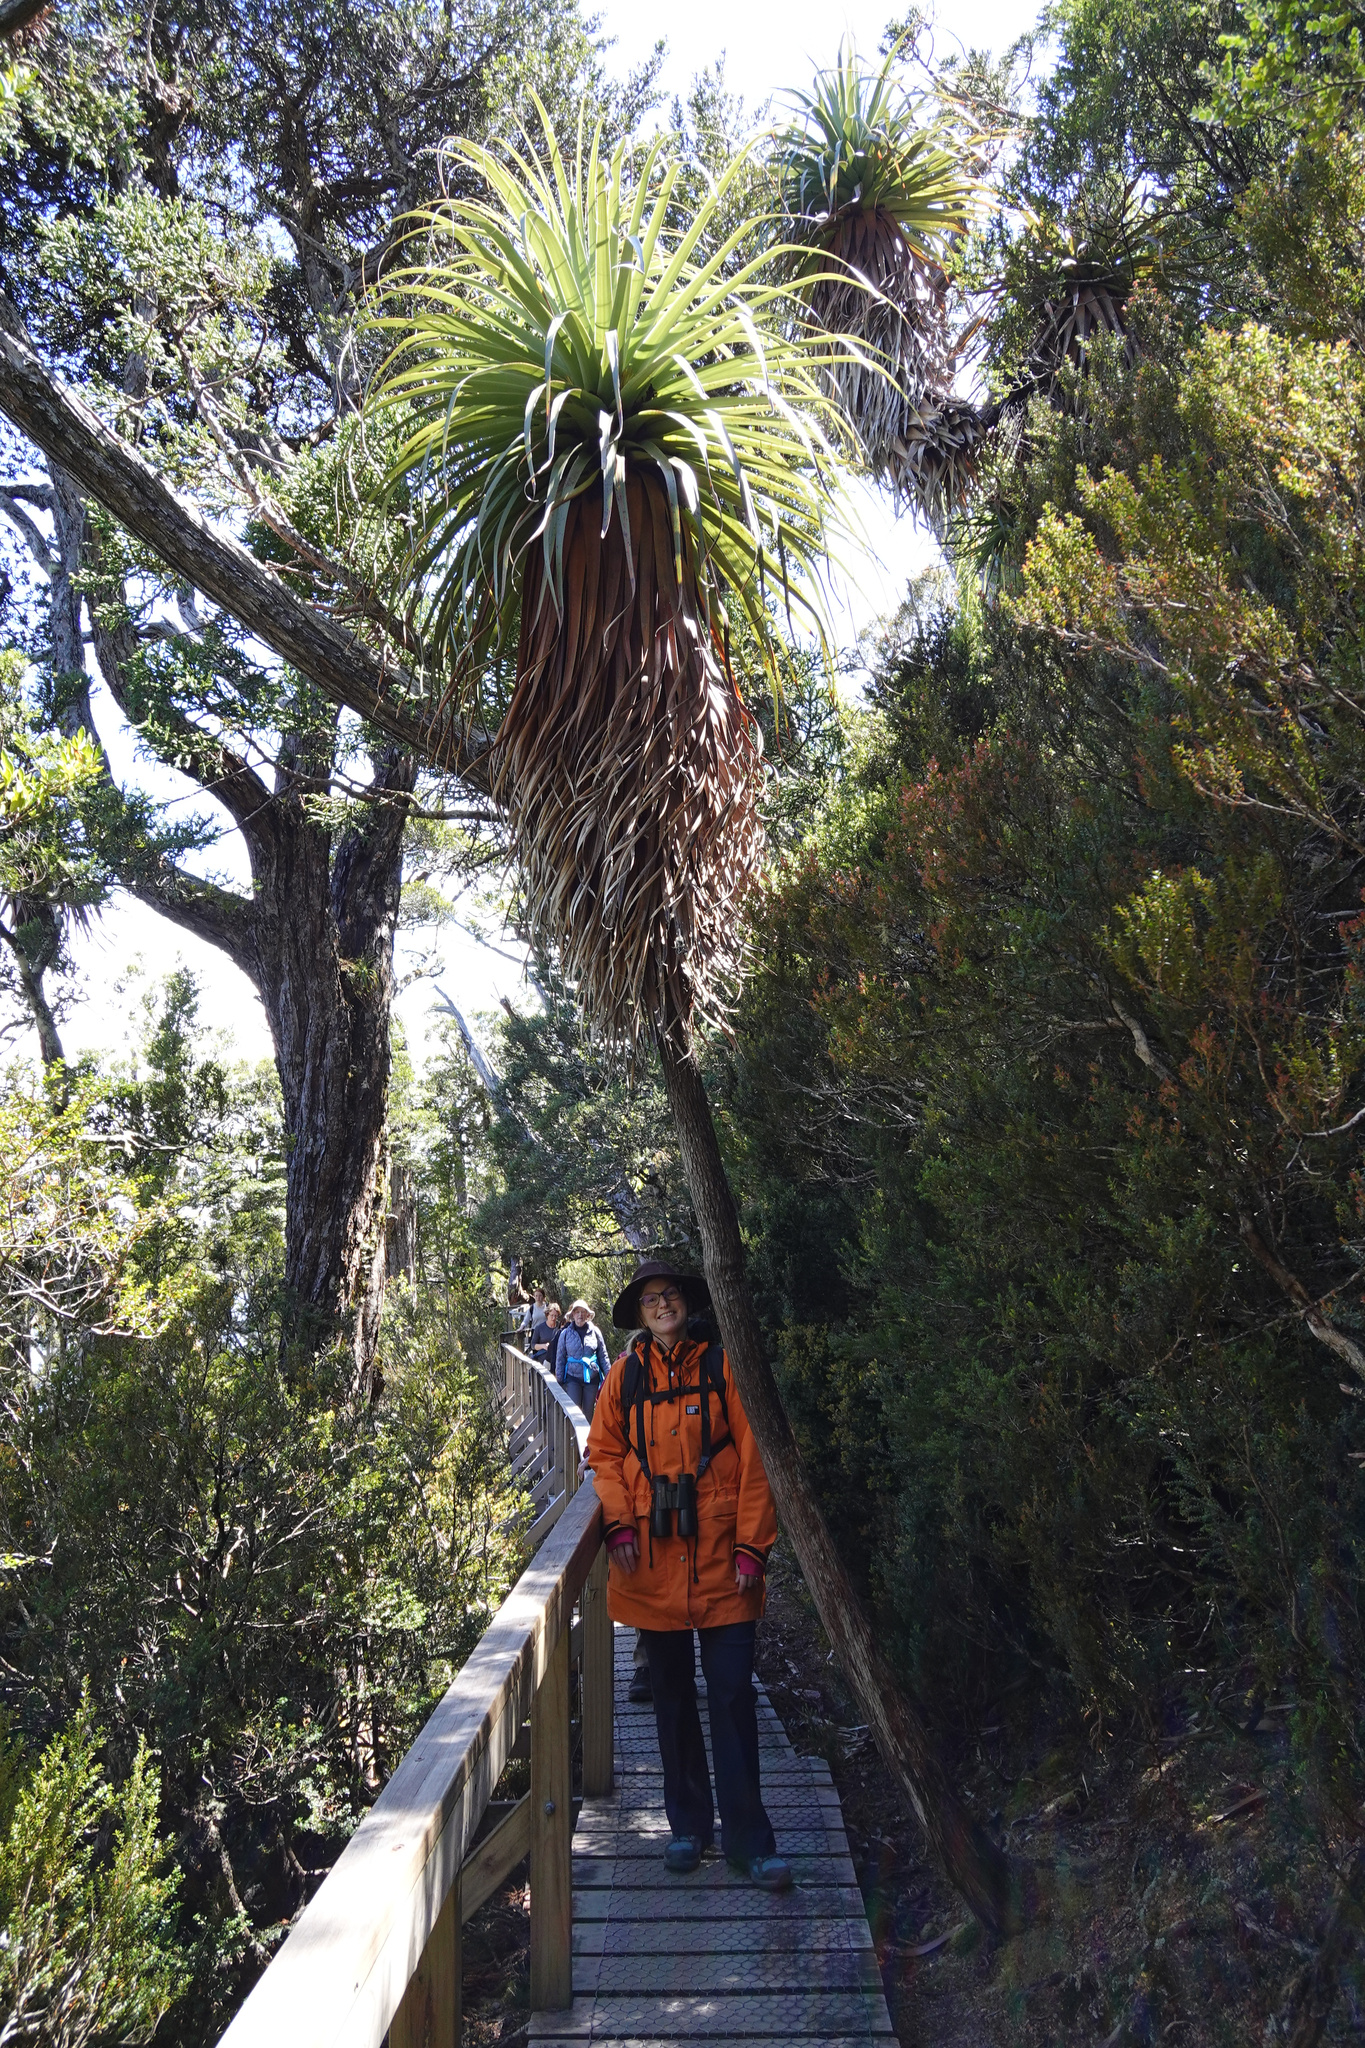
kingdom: Plantae
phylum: Tracheophyta
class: Magnoliopsida
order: Ericales
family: Ericaceae
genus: Dracophyllum
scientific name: Dracophyllum pandanifolium
